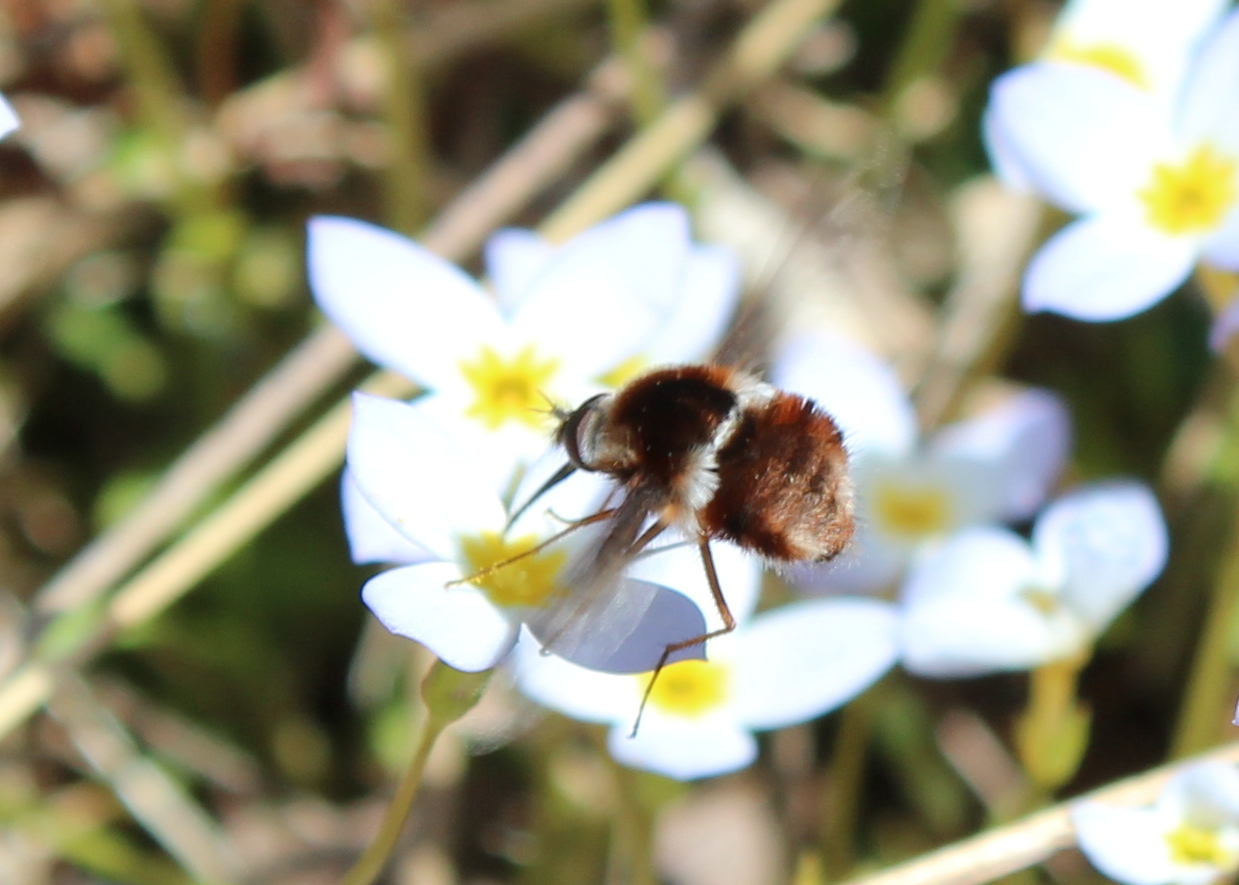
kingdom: Animalia
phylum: Arthropoda
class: Insecta
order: Diptera
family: Bombyliidae
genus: Bombylius
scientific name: Bombylius pygmaeus
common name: Pygmy bee fly
